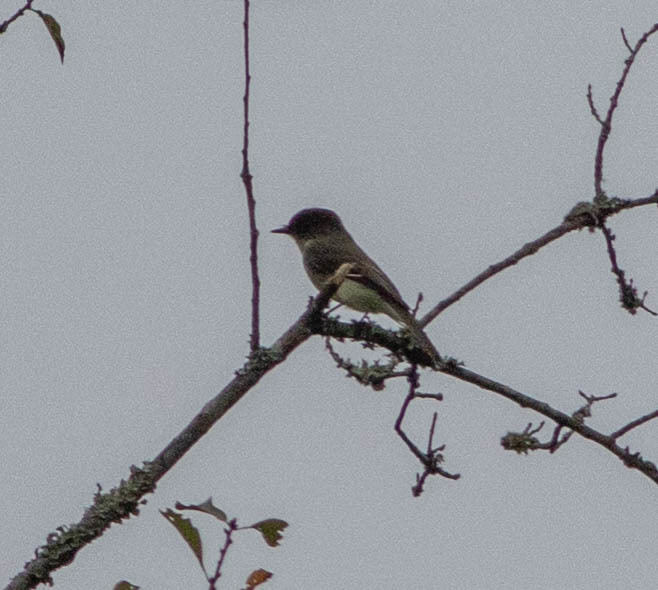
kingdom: Animalia
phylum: Chordata
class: Aves
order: Passeriformes
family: Tyrannidae
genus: Sayornis
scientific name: Sayornis phoebe
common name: Eastern phoebe
